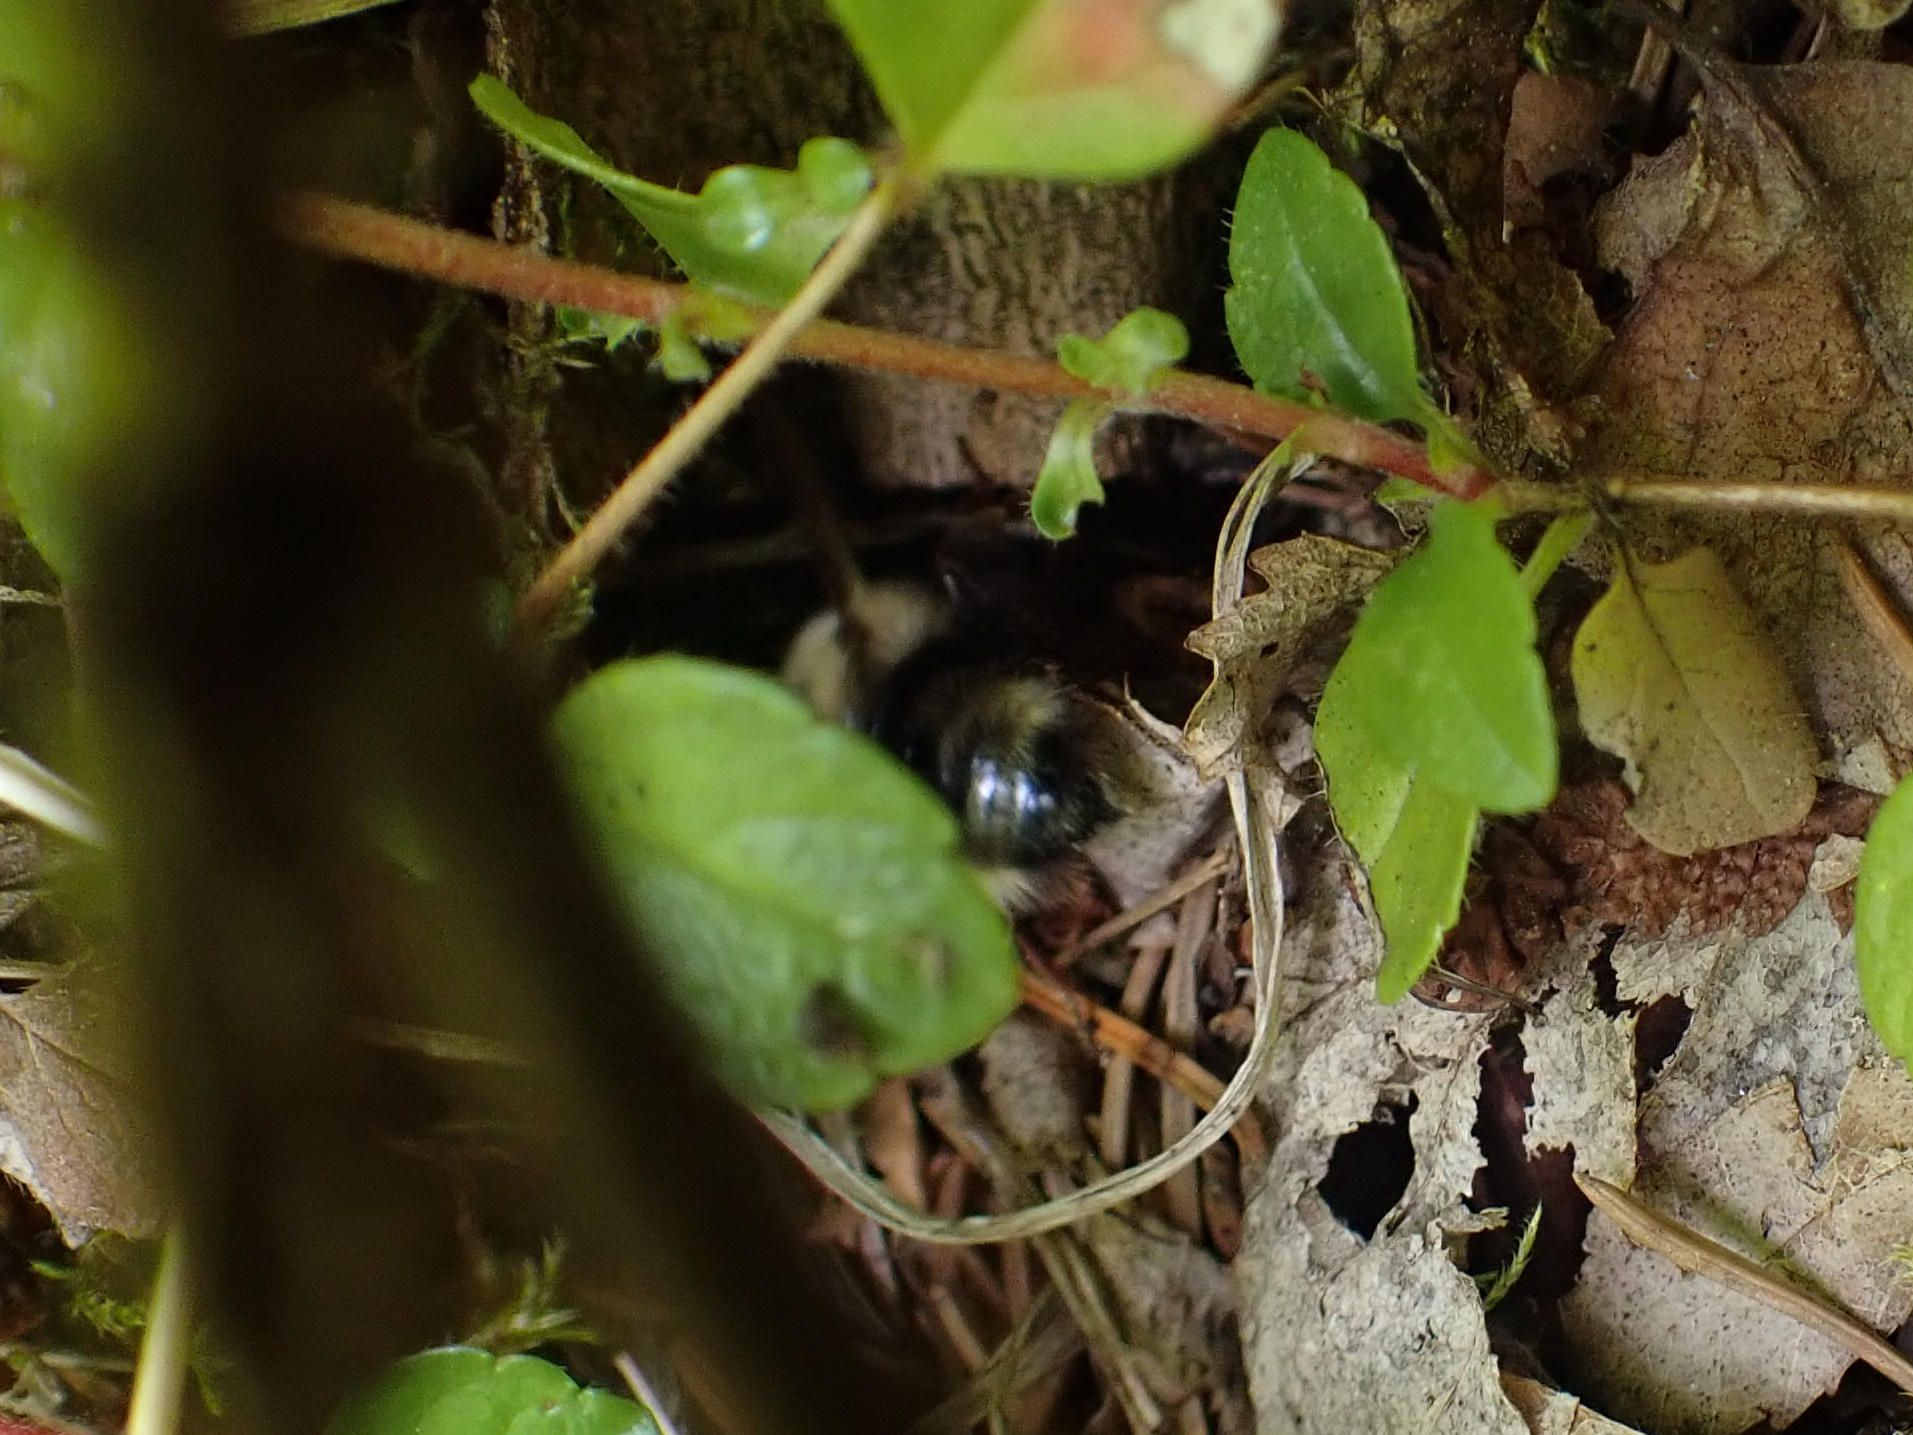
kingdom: Animalia
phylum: Arthropoda
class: Insecta
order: Hymenoptera
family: Apidae
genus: Bombus
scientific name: Bombus flavidus
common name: Fernald cuckoo bumble bee
